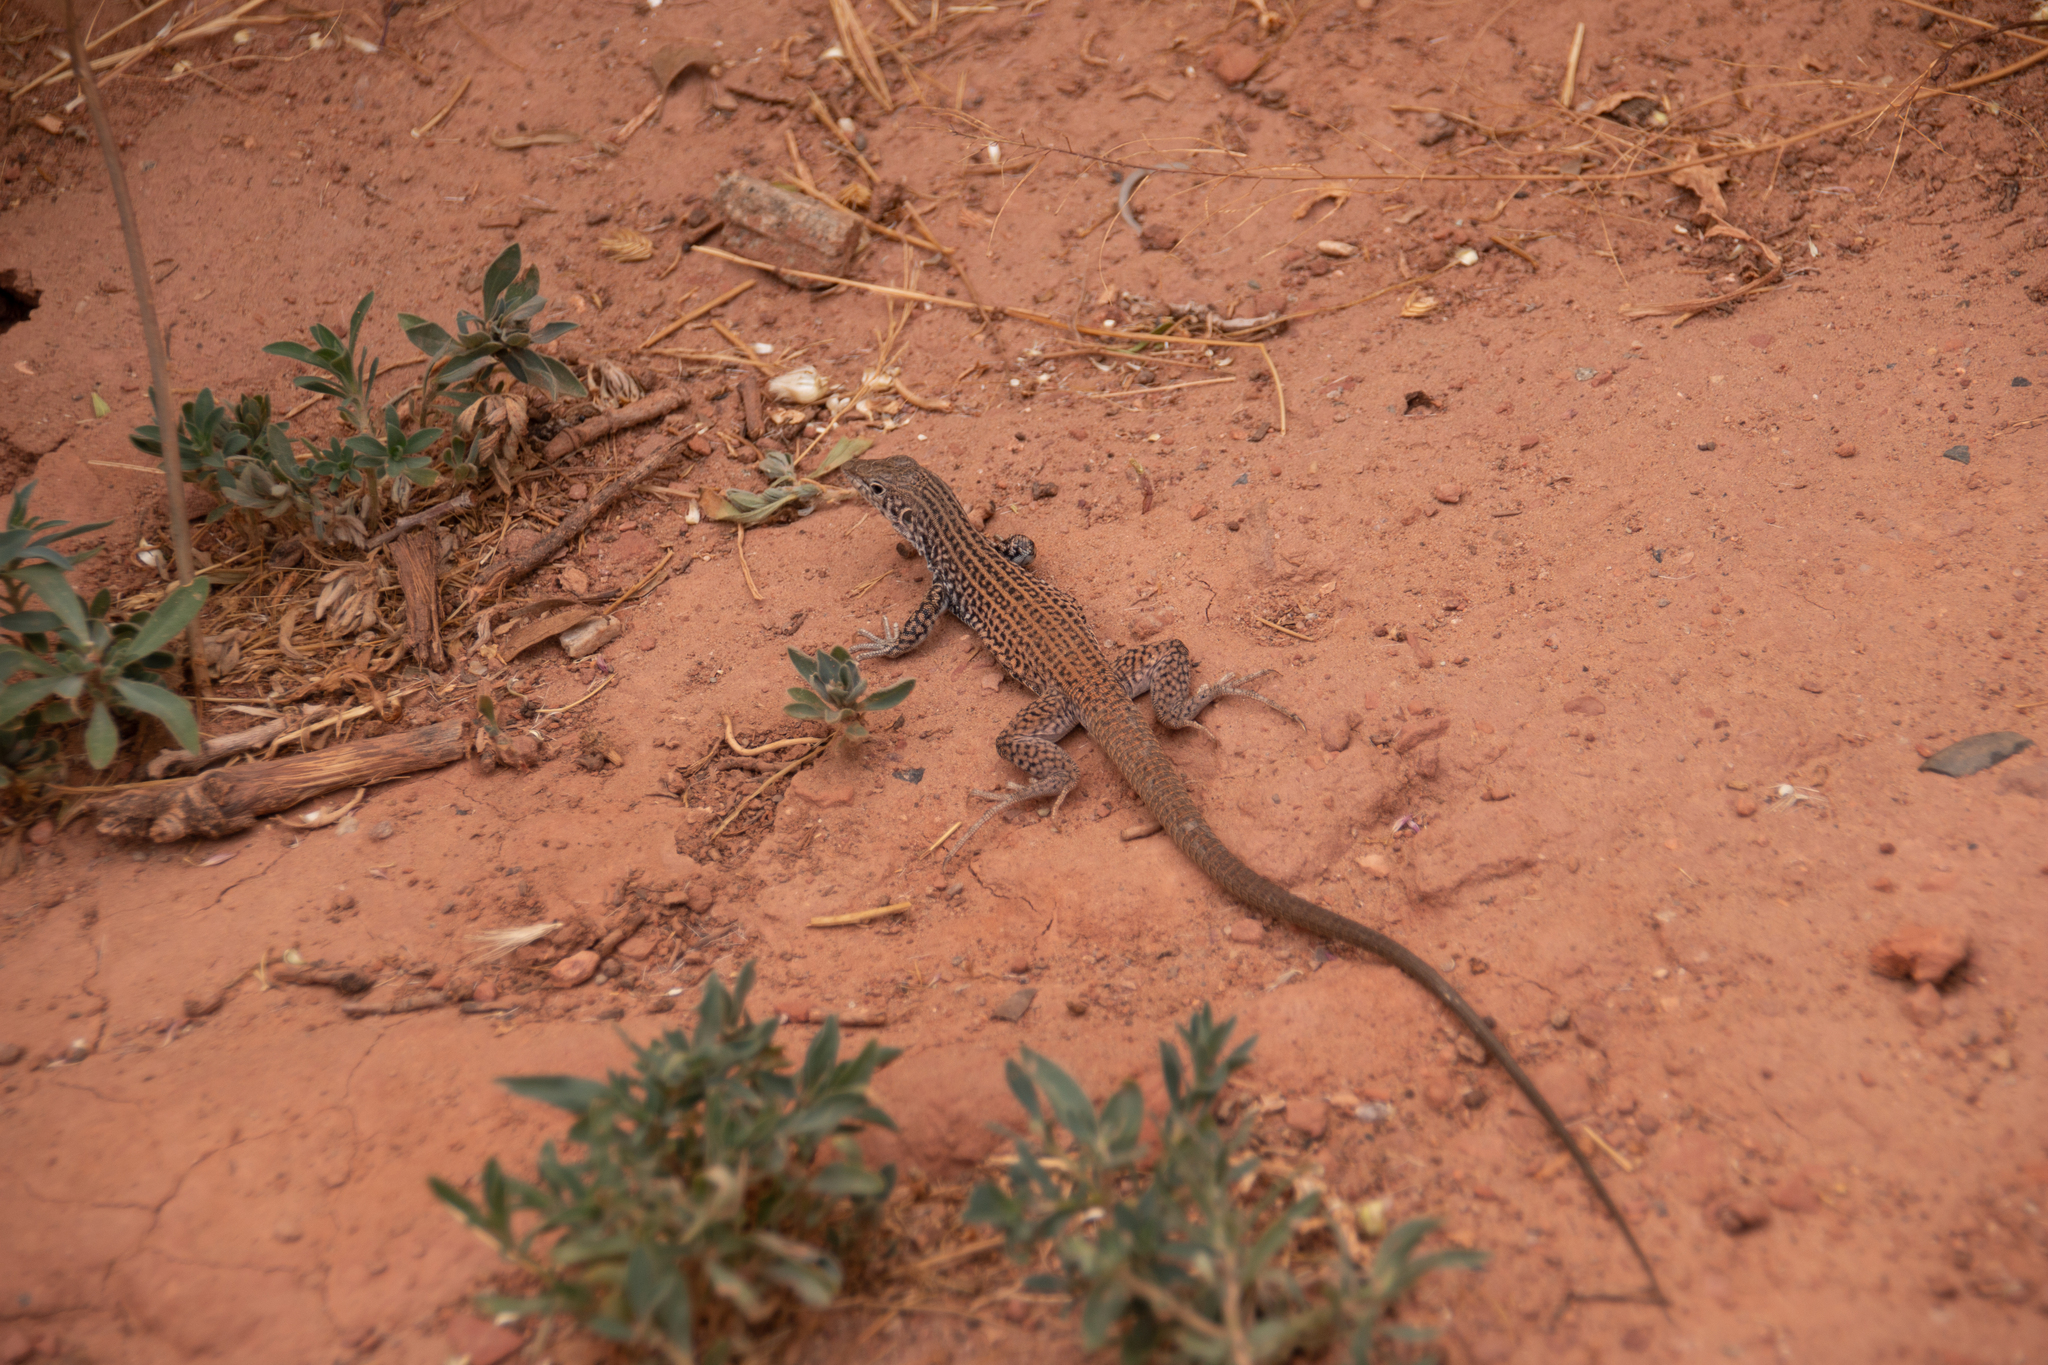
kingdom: Animalia
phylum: Chordata
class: Squamata
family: Teiidae
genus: Aspidoscelis
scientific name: Aspidoscelis tigris
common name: Tiger whiptail
